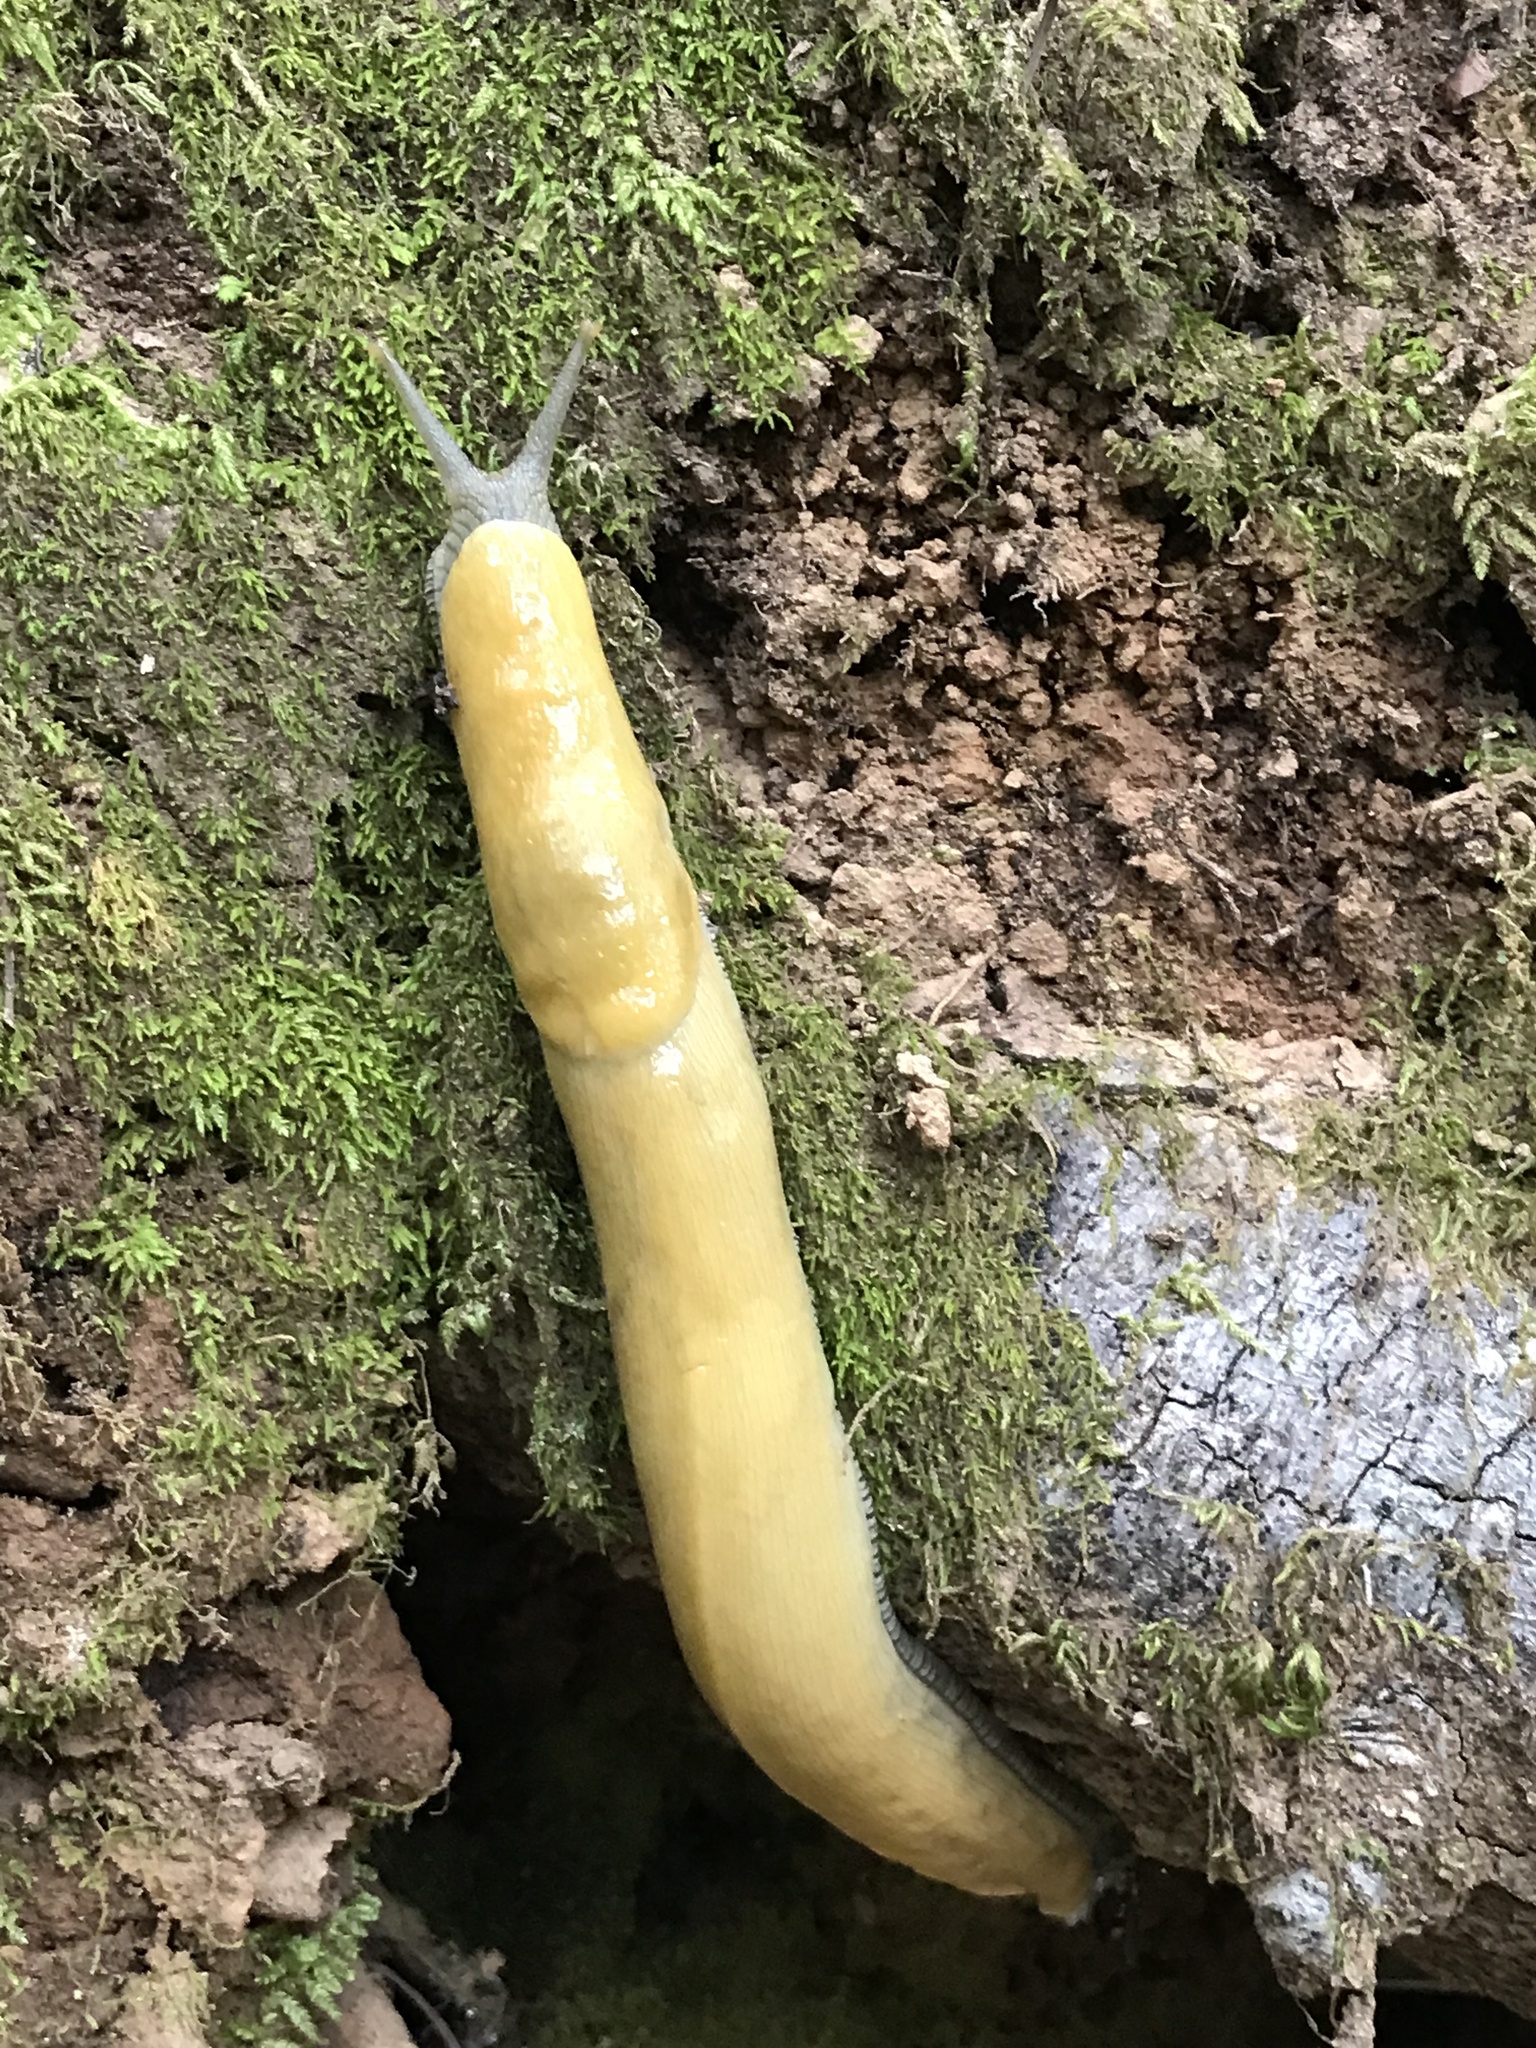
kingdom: Animalia
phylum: Mollusca
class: Gastropoda
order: Stylommatophora
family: Ariolimacidae
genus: Ariolimax
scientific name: Ariolimax dolichophallus
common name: Slender banana slug
